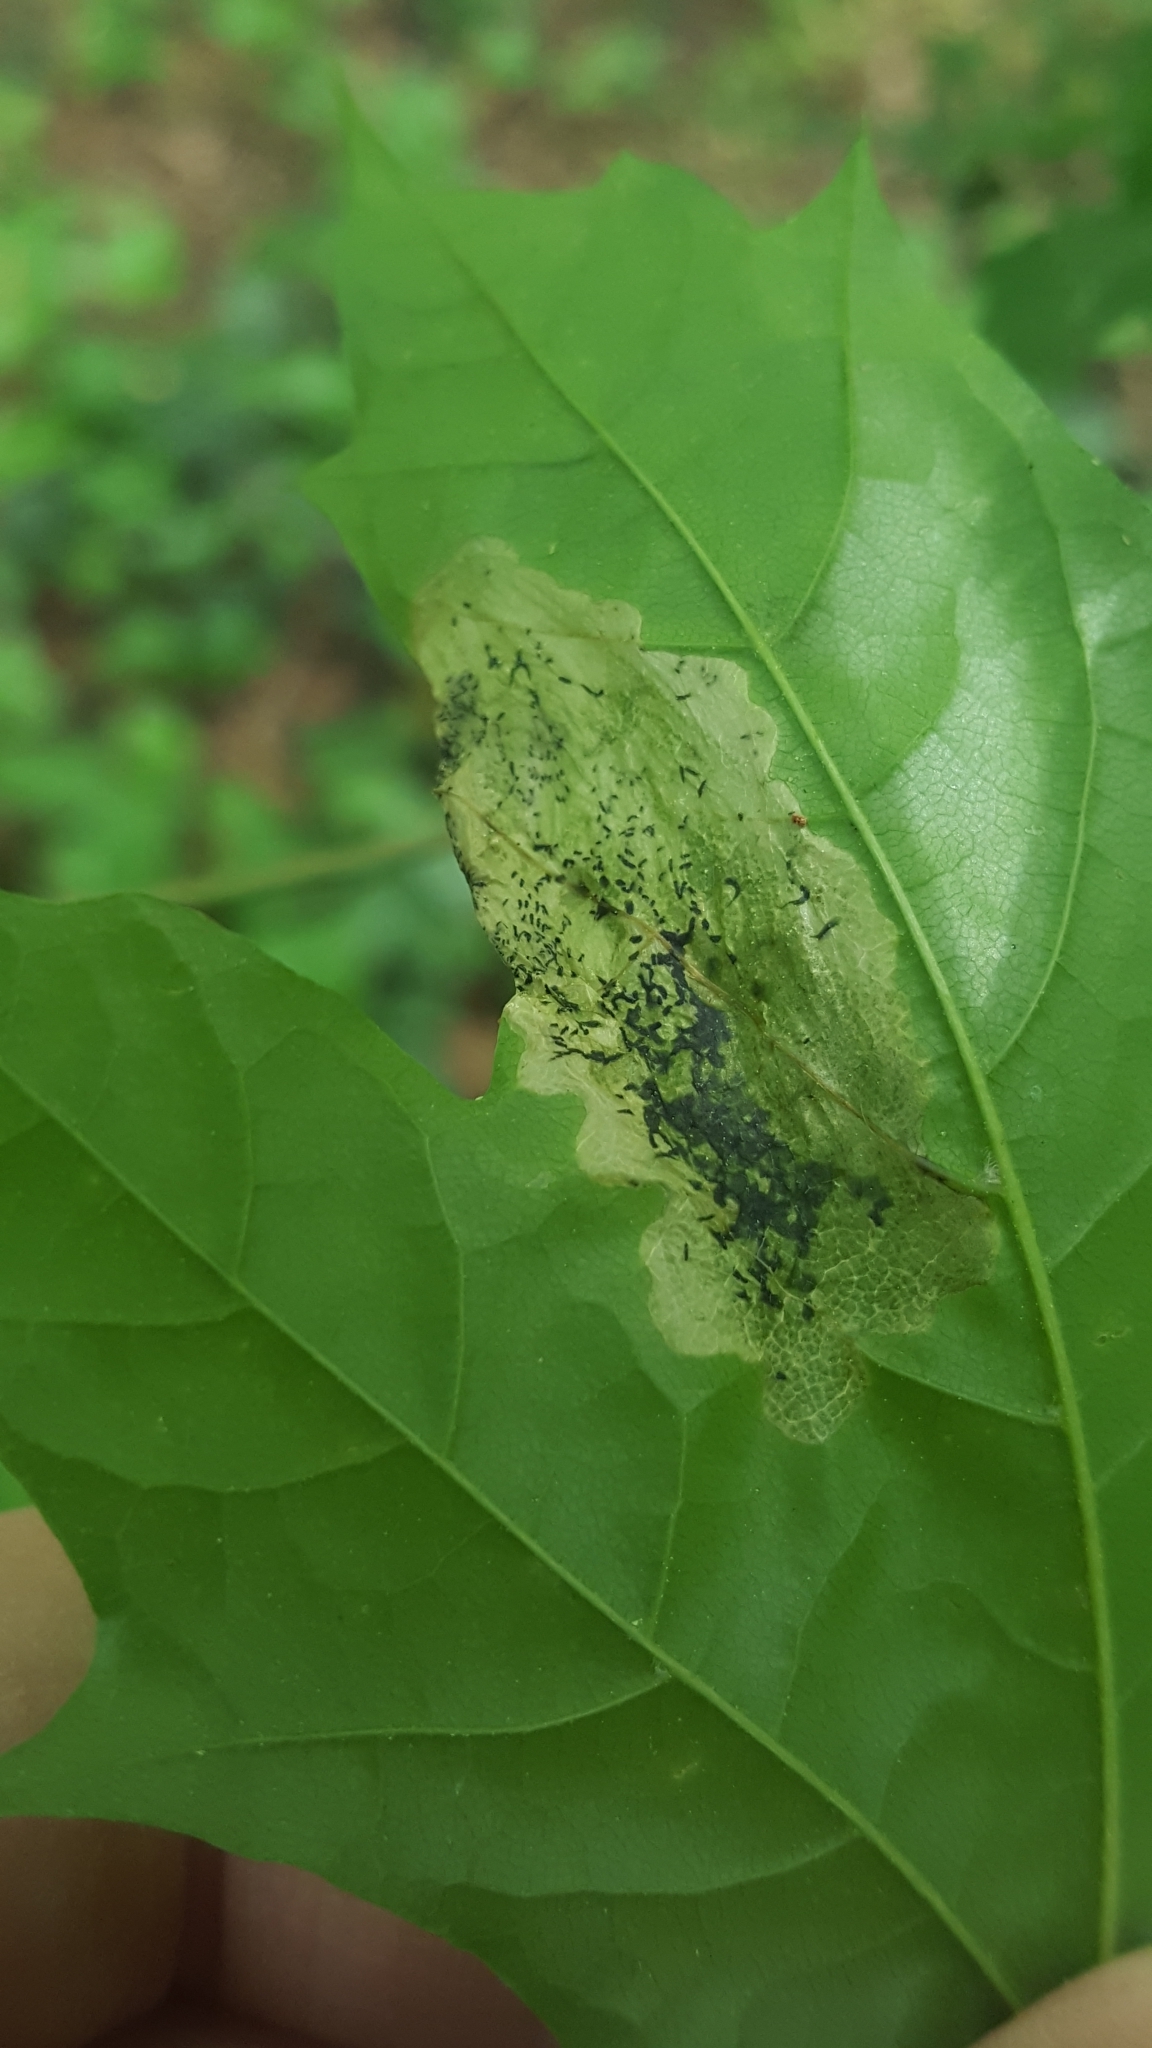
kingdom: Animalia
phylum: Arthropoda
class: Insecta
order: Hymenoptera
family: Tenthredinidae
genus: Hinatara
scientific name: Hinatara recta
